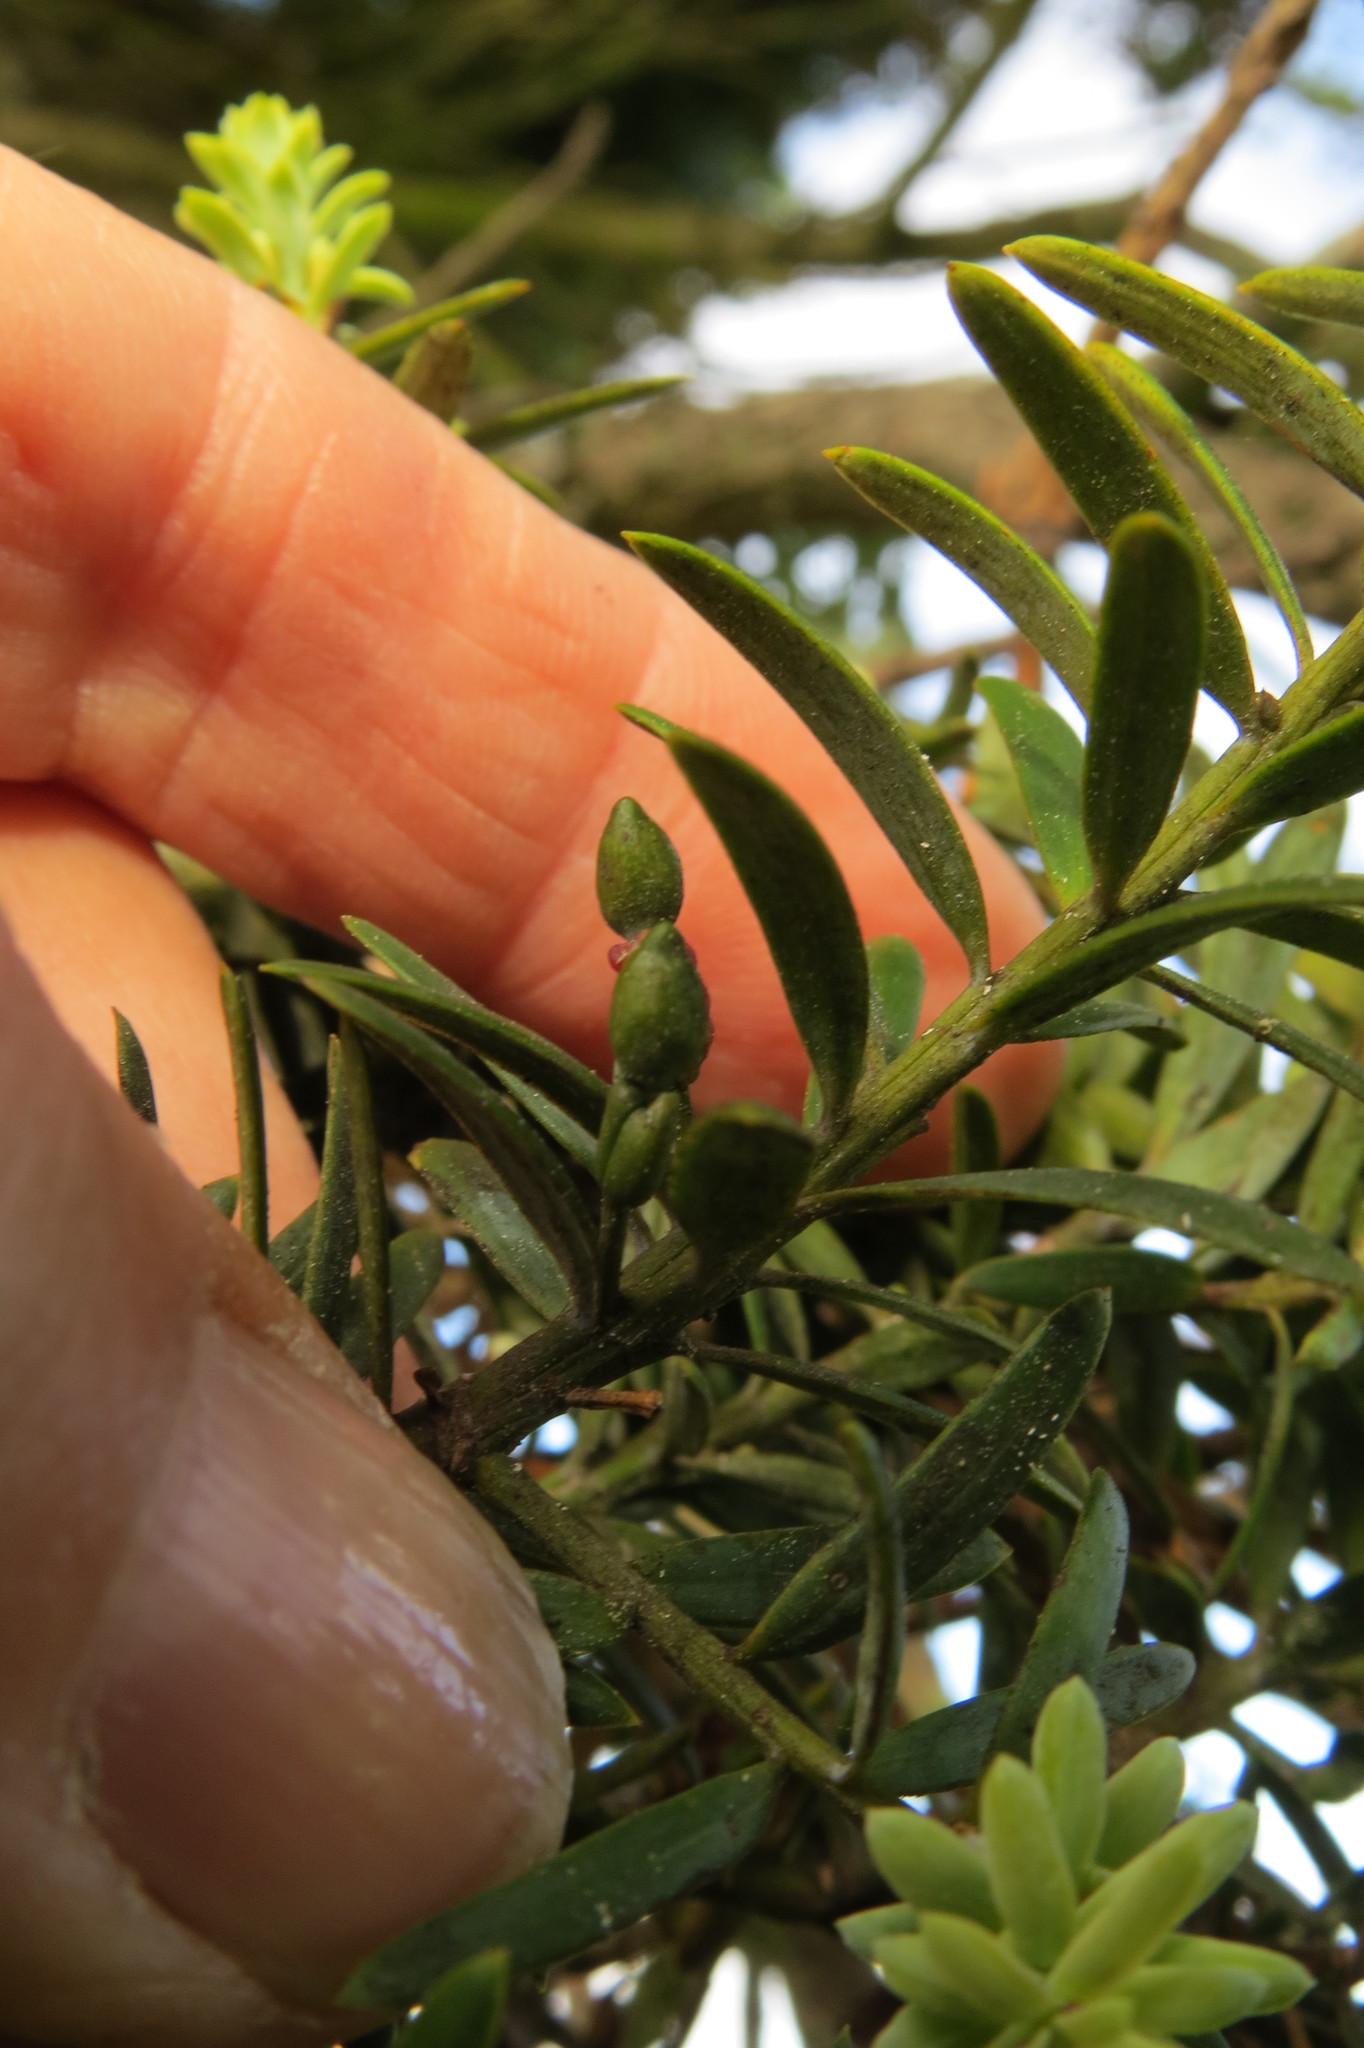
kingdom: Plantae
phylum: Tracheophyta
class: Pinopsida
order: Pinales
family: Podocarpaceae
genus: Podocarpus
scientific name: Podocarpus totara
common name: Totara
